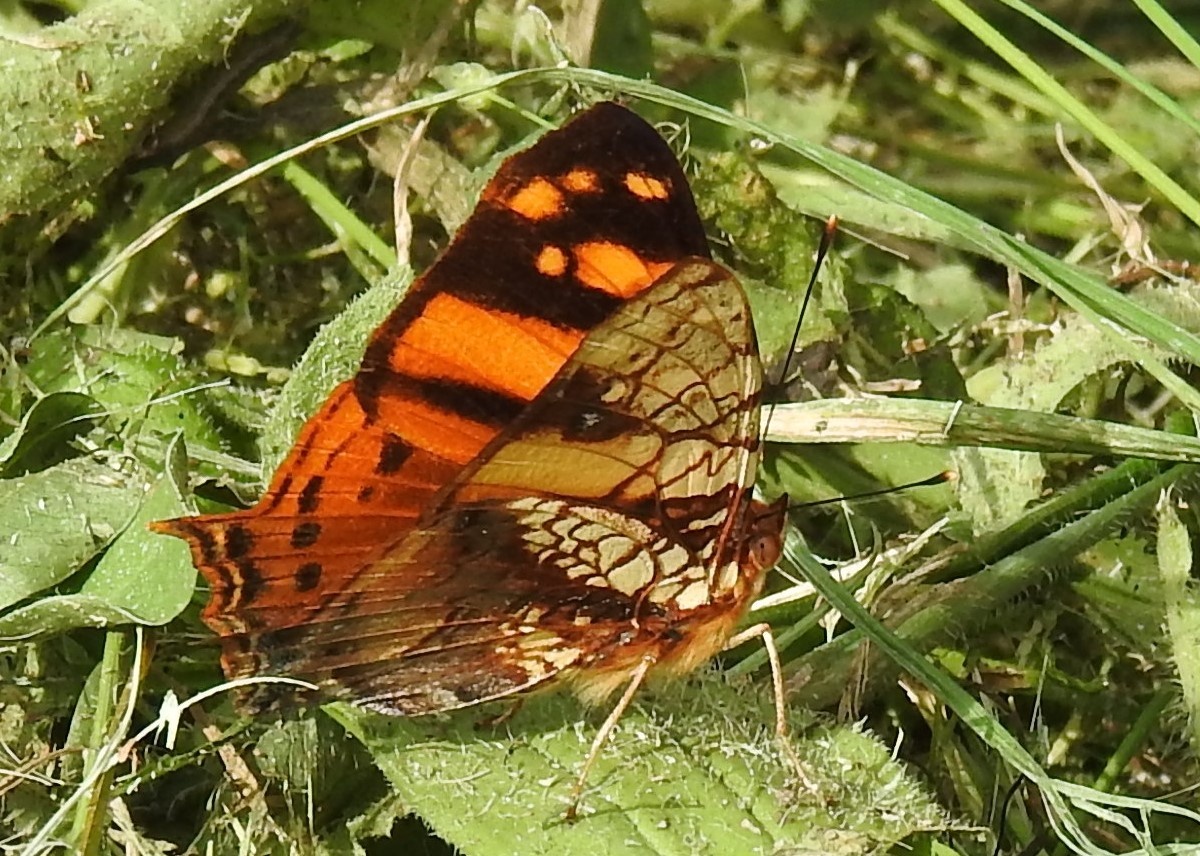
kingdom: Animalia
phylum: Arthropoda
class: Insecta
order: Lepidoptera
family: Nymphalidae
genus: Hypanartia
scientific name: Hypanartia lethe
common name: Orange mapwing
